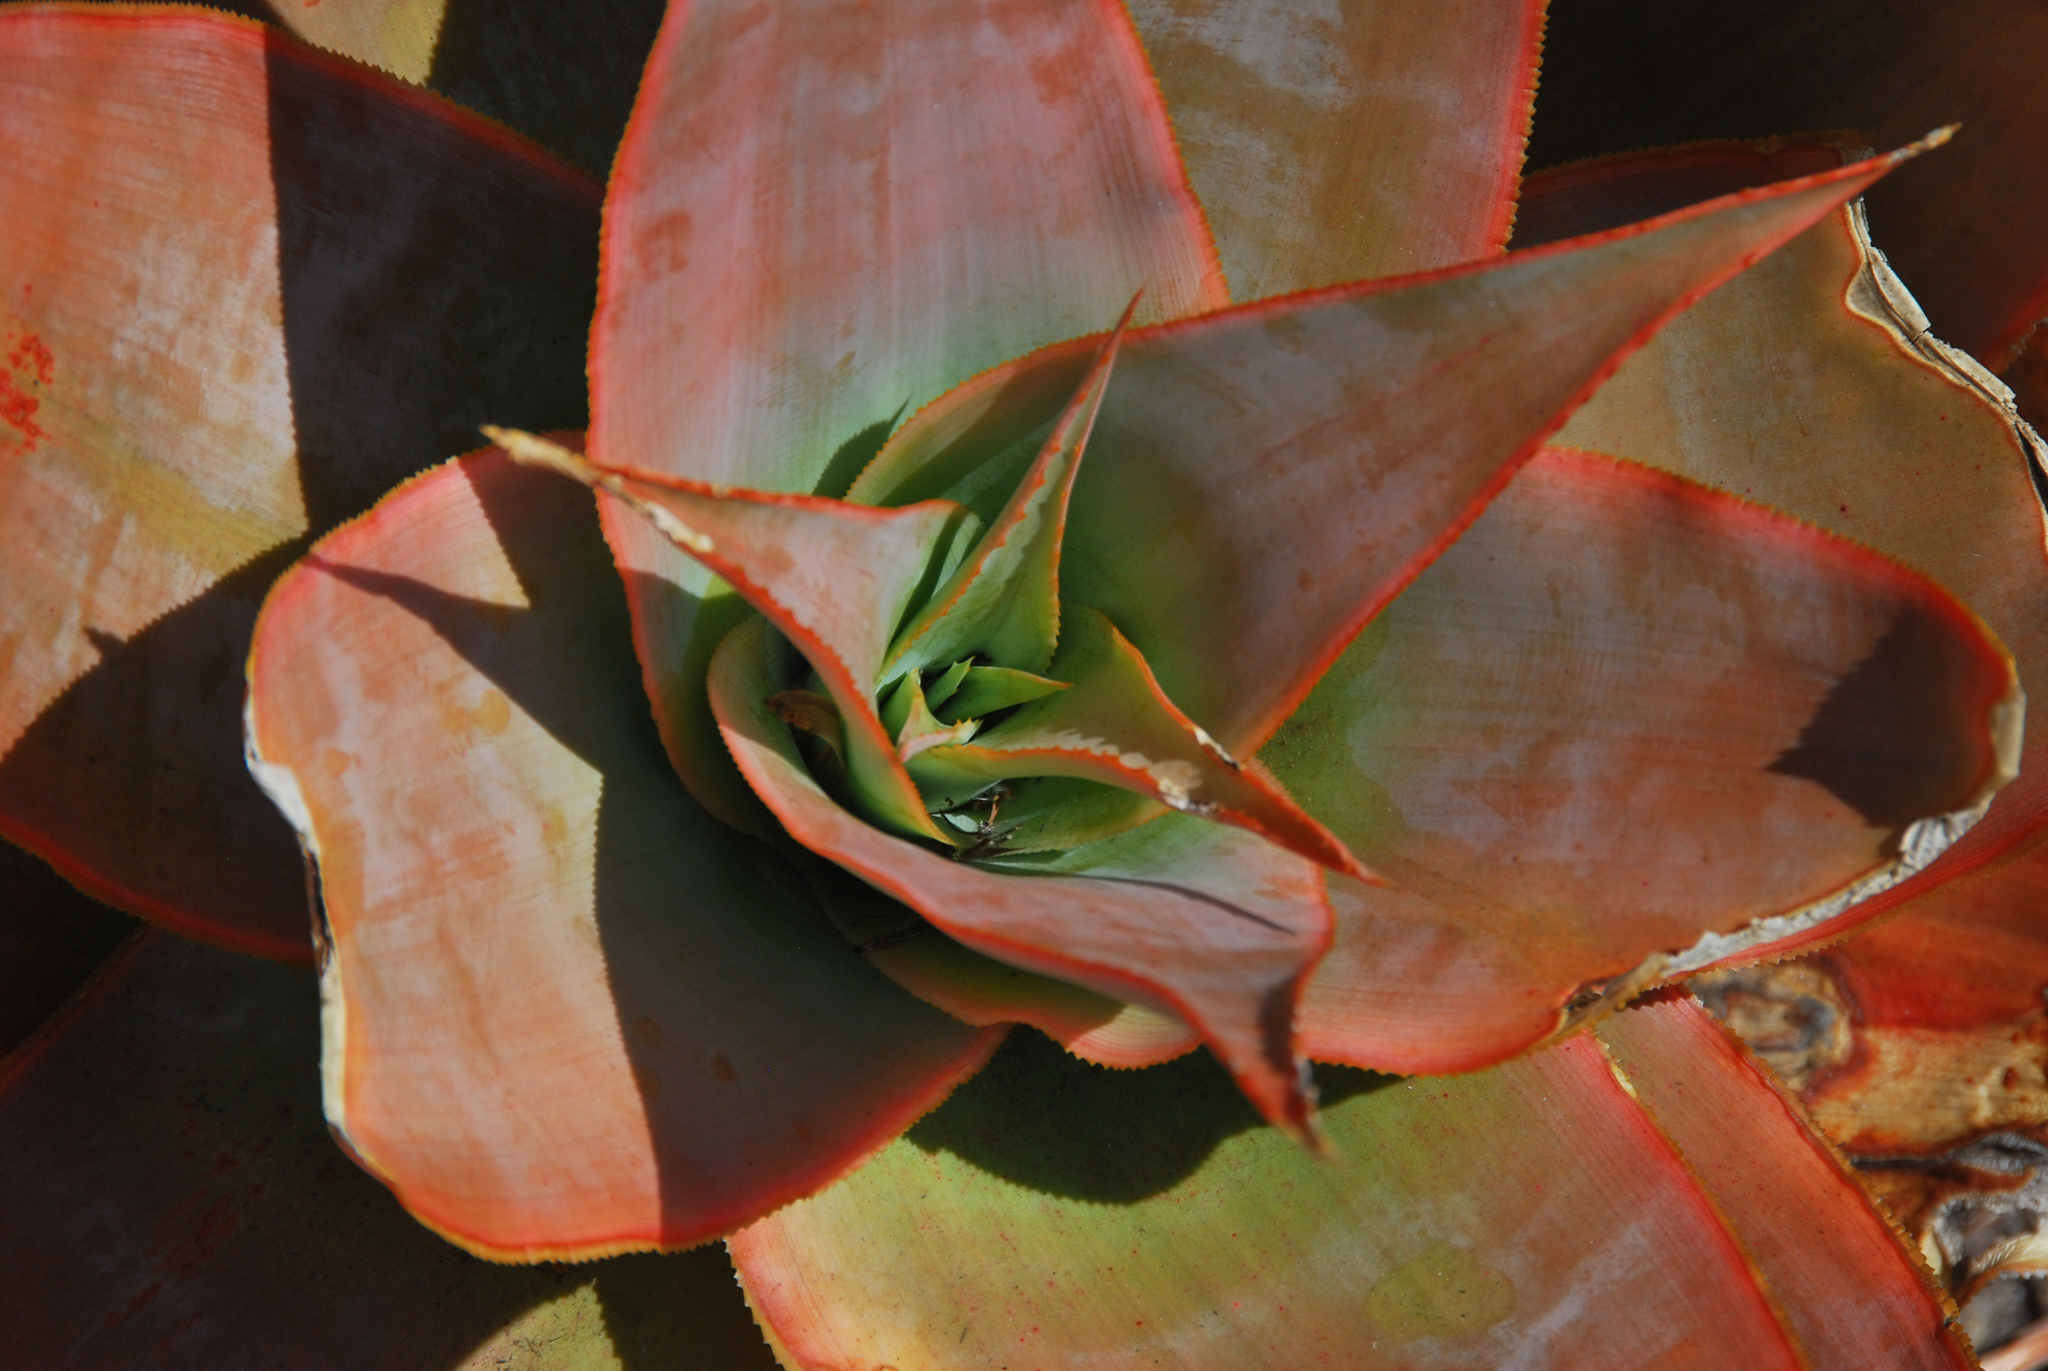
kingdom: Plantae
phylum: Tracheophyta
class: Liliopsida
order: Asparagales
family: Asphodelaceae
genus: Aloe
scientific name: Aloe imalotensis
